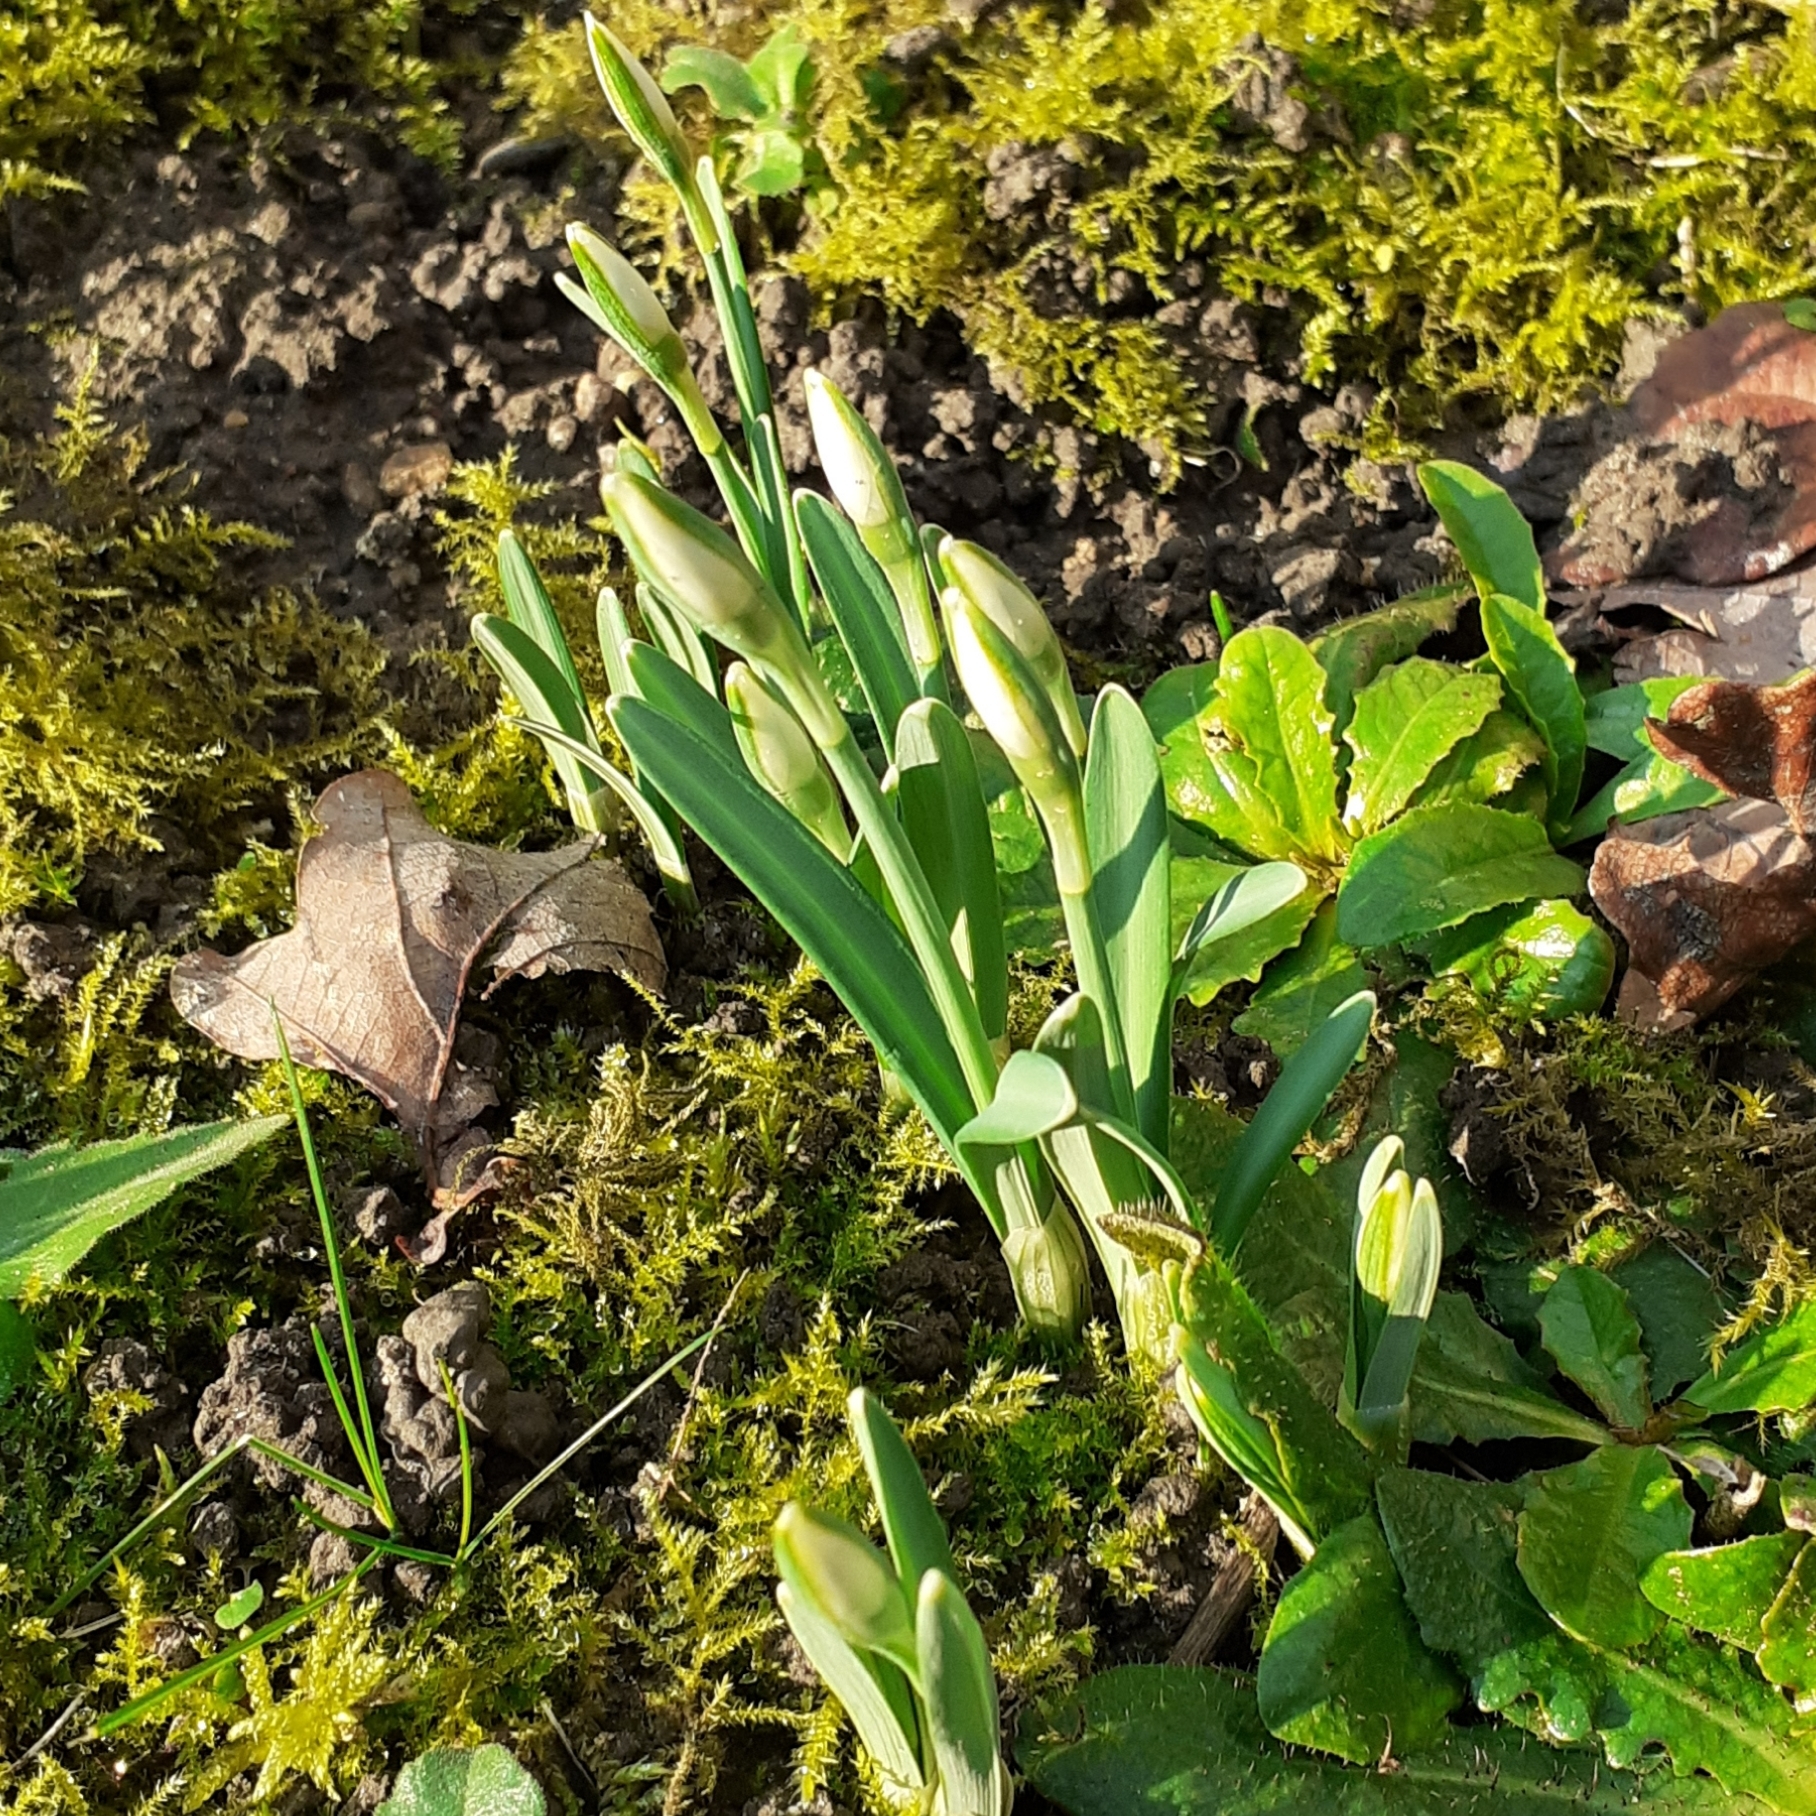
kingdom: Plantae
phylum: Tracheophyta
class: Liliopsida
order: Asparagales
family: Amaryllidaceae
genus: Galanthus
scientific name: Galanthus nivalis
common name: Snowdrop
